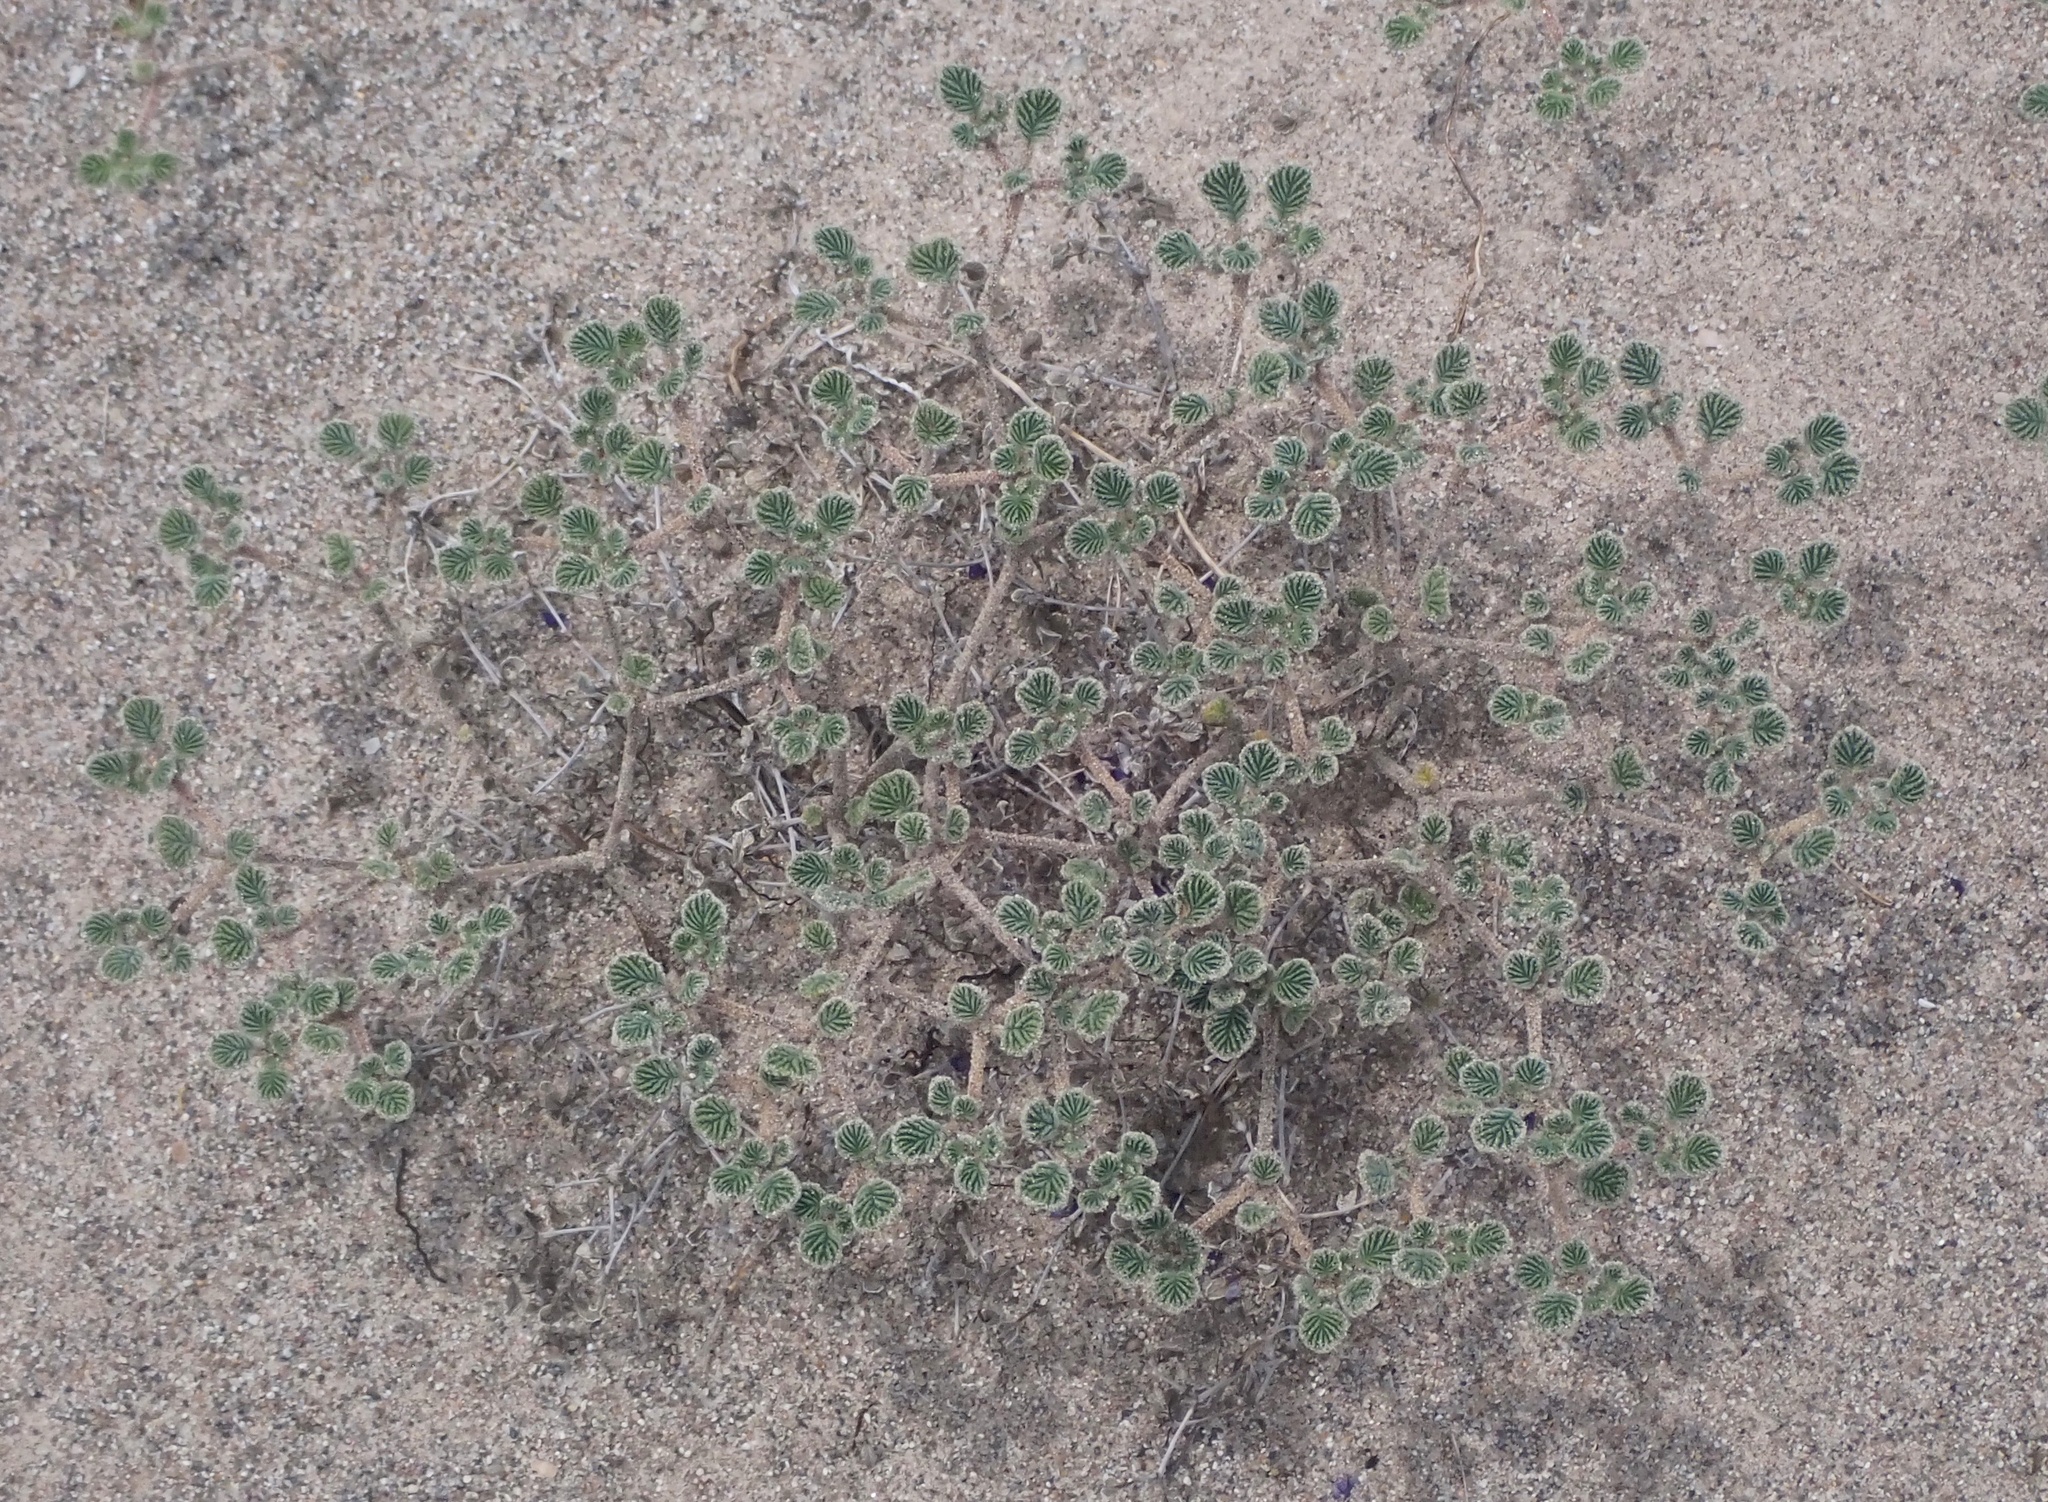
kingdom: Plantae
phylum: Tracheophyta
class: Magnoliopsida
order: Boraginales
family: Ehretiaceae
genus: Tiquilia
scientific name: Tiquilia plicata
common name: Fan-leaf tiquilia
